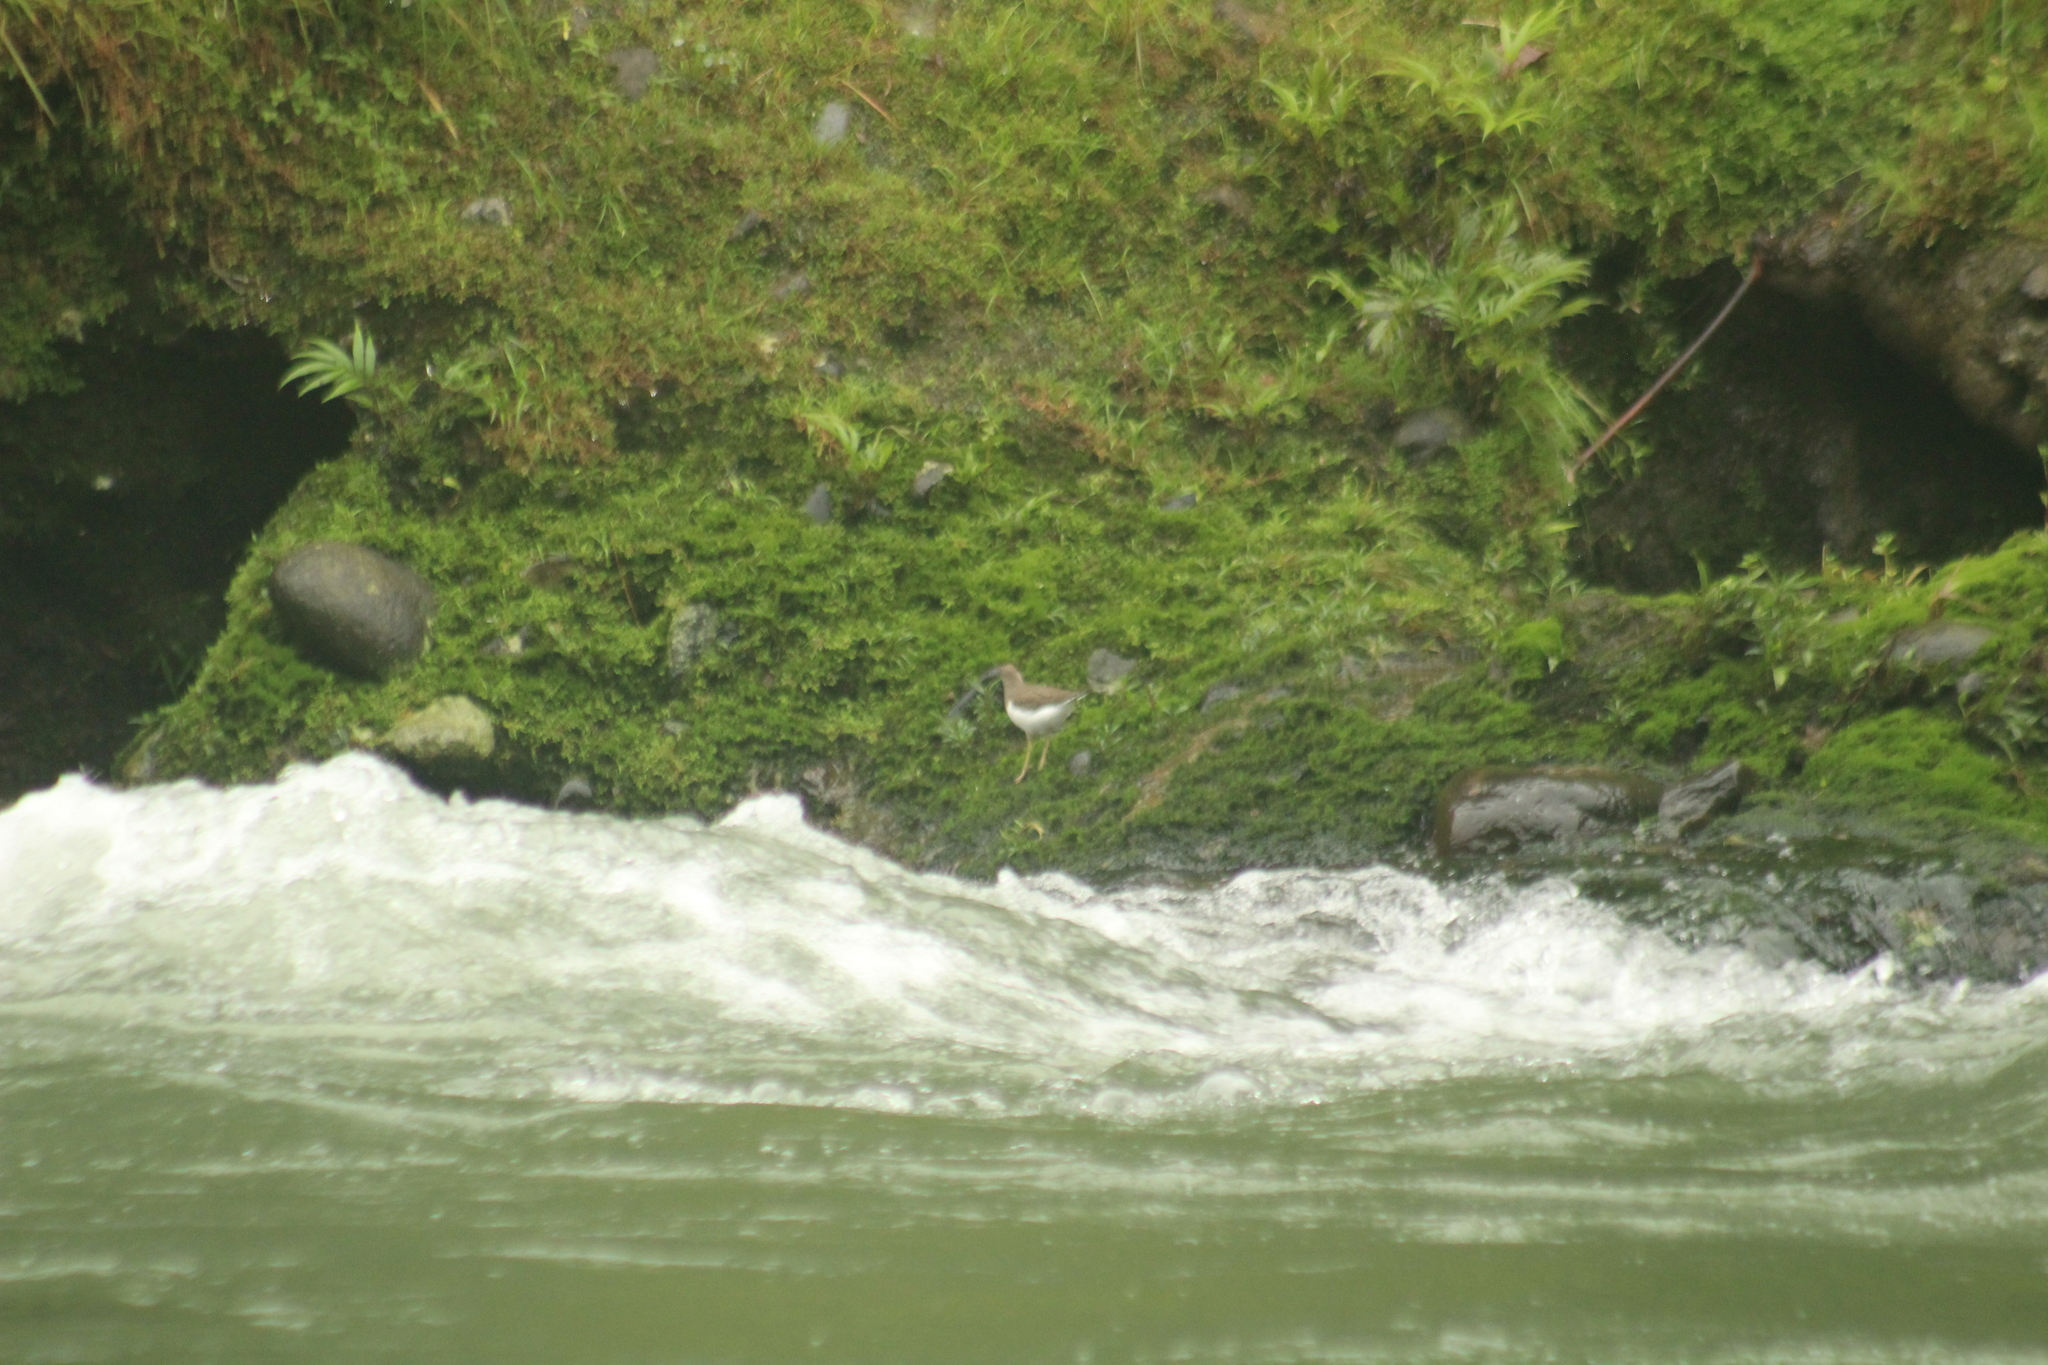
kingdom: Animalia
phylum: Chordata
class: Aves
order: Charadriiformes
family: Scolopacidae
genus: Actitis
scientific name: Actitis macularius
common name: Spotted sandpiper
